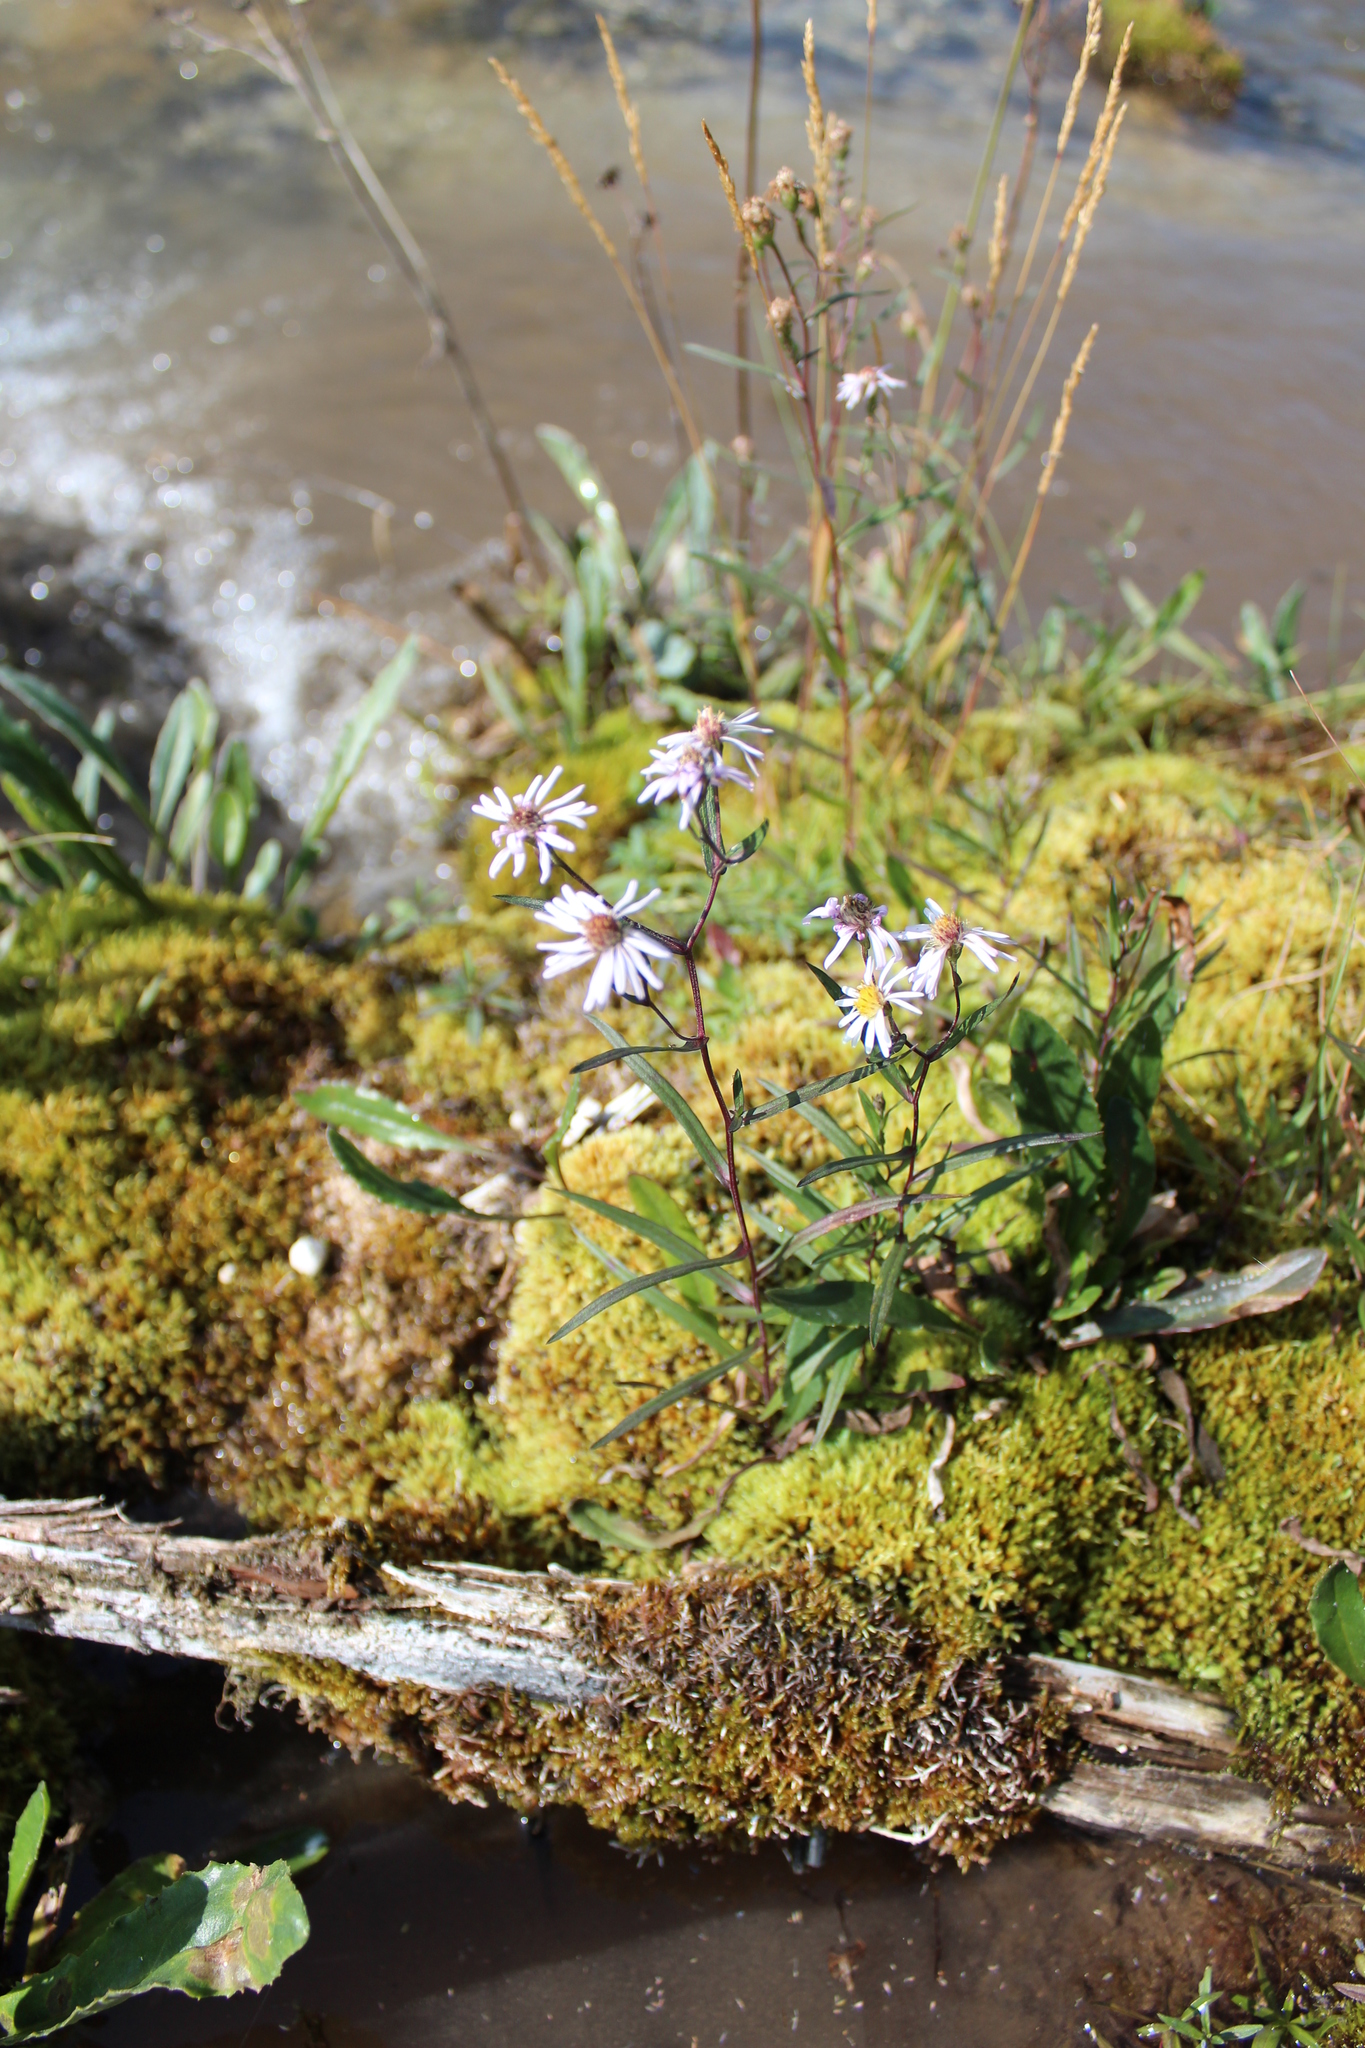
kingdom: Plantae
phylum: Tracheophyta
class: Magnoliopsida
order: Asterales
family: Asteraceae
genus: Symphyotrichum
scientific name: Symphyotrichum nahanniense
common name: Nahanni aster
